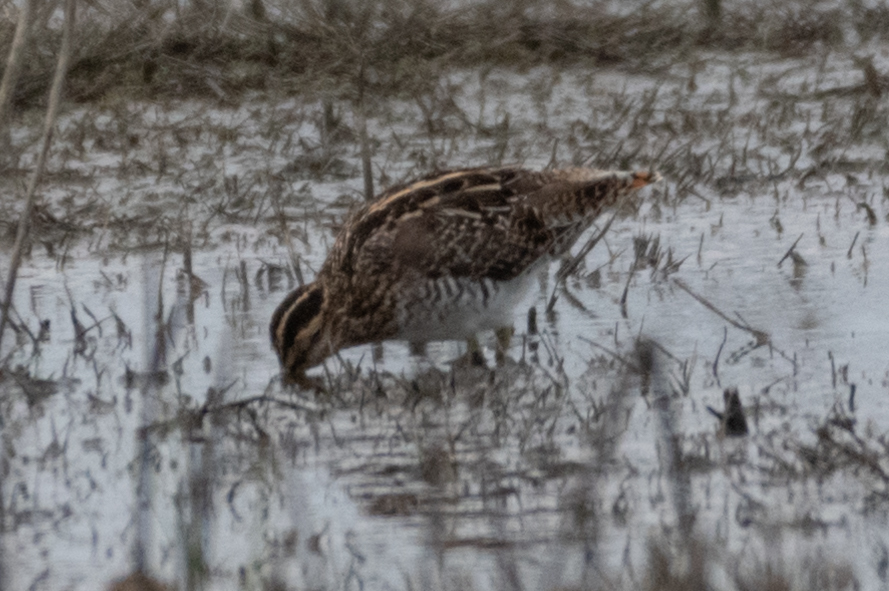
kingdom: Animalia
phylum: Chordata
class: Aves
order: Charadriiformes
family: Scolopacidae
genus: Gallinago
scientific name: Gallinago delicata
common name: Wilson's snipe
